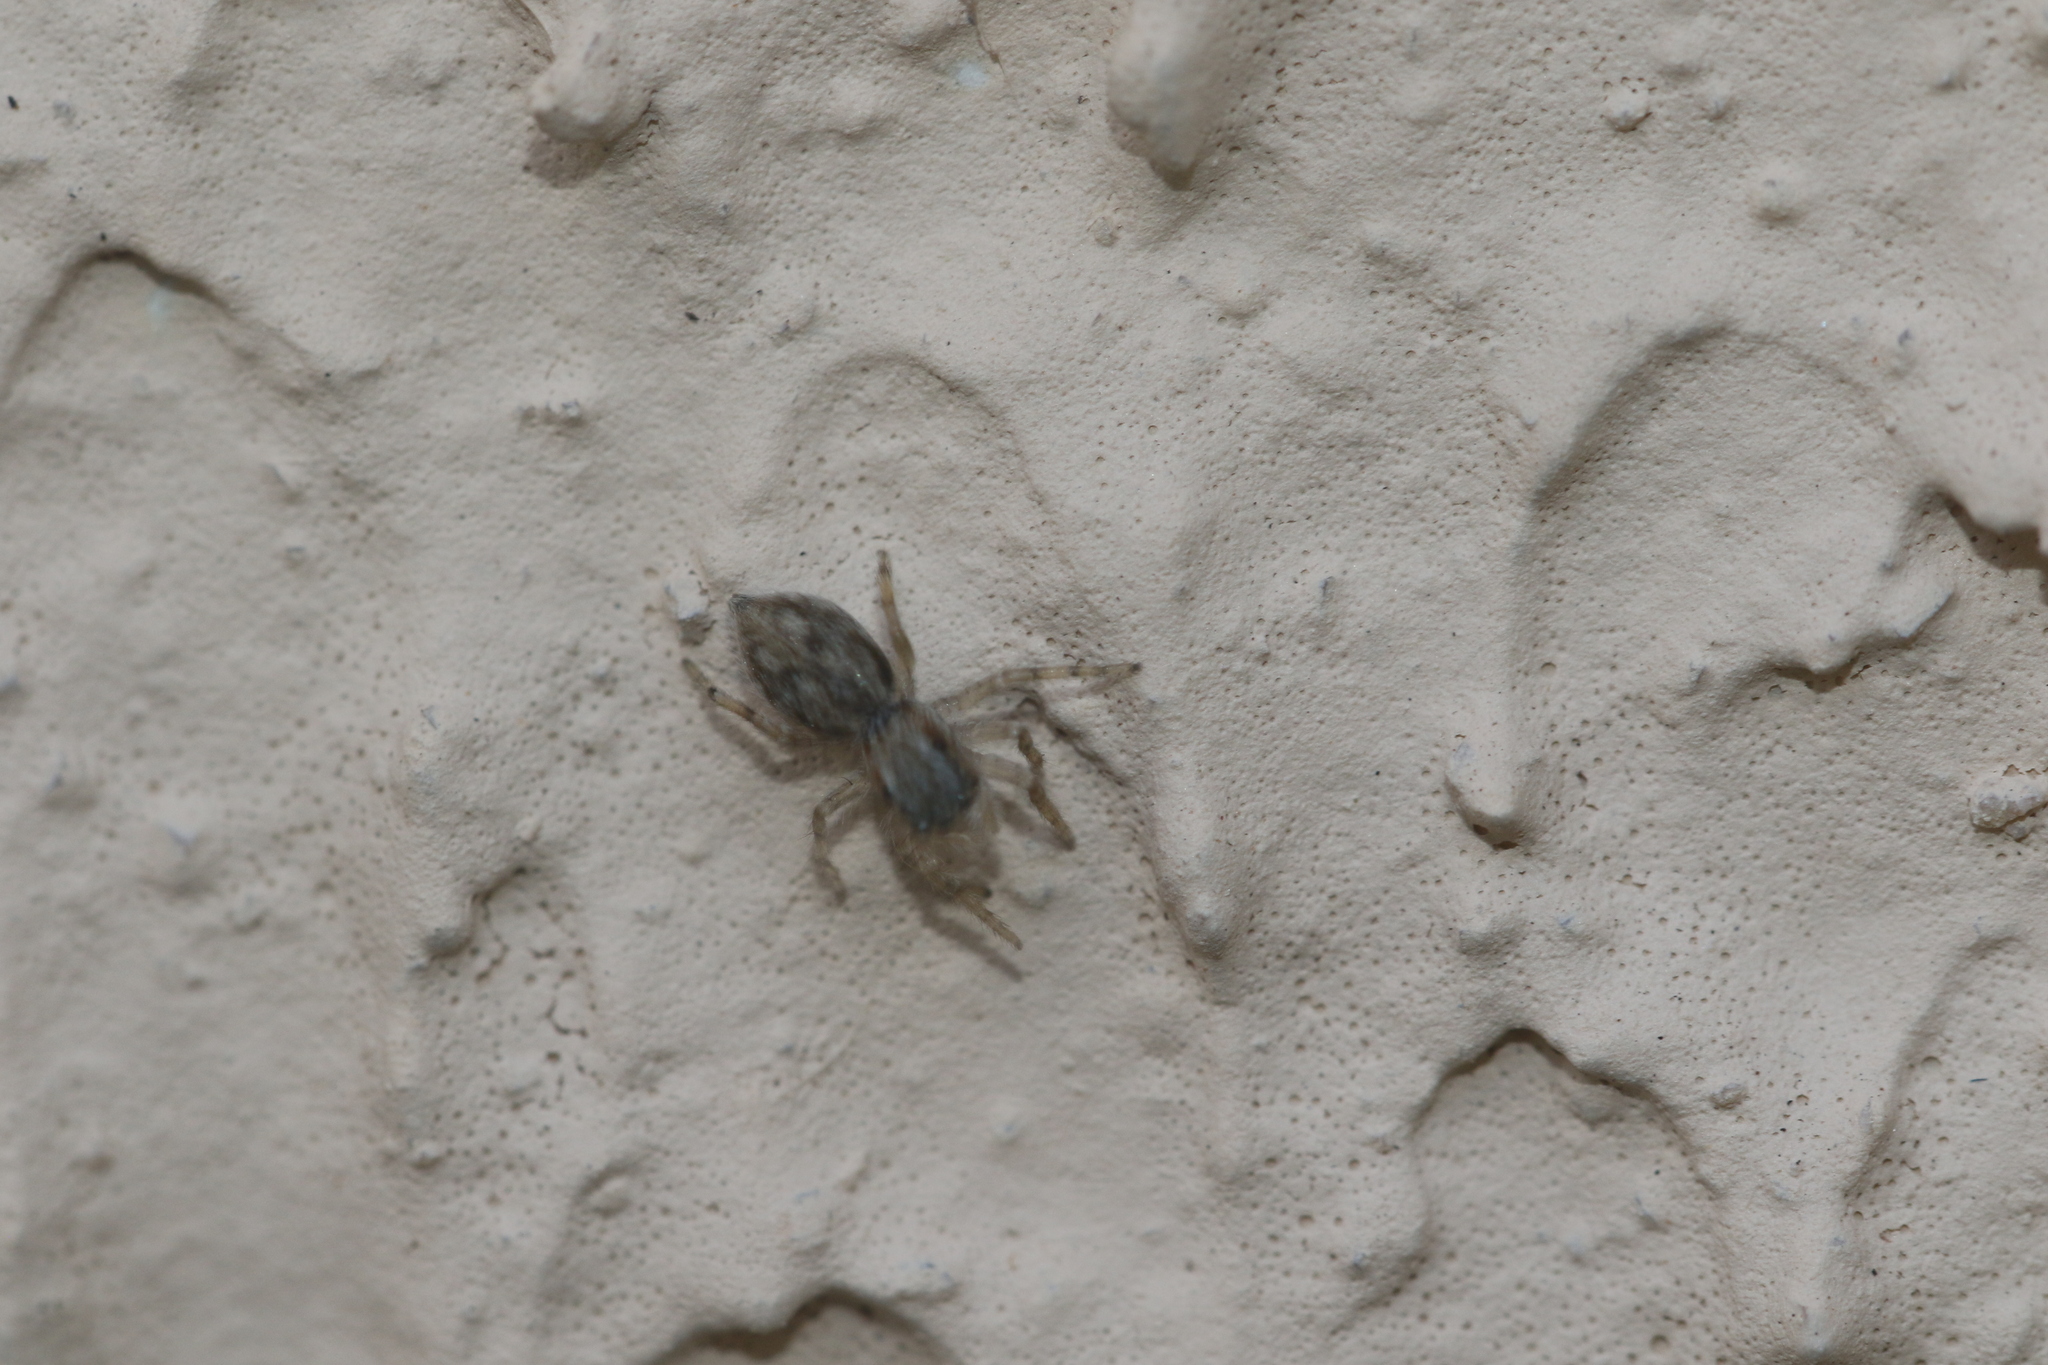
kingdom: Animalia
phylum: Arthropoda
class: Arachnida
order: Araneae
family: Salticidae
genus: Menemerus
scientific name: Menemerus bivittatus
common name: Gray wall jumper
